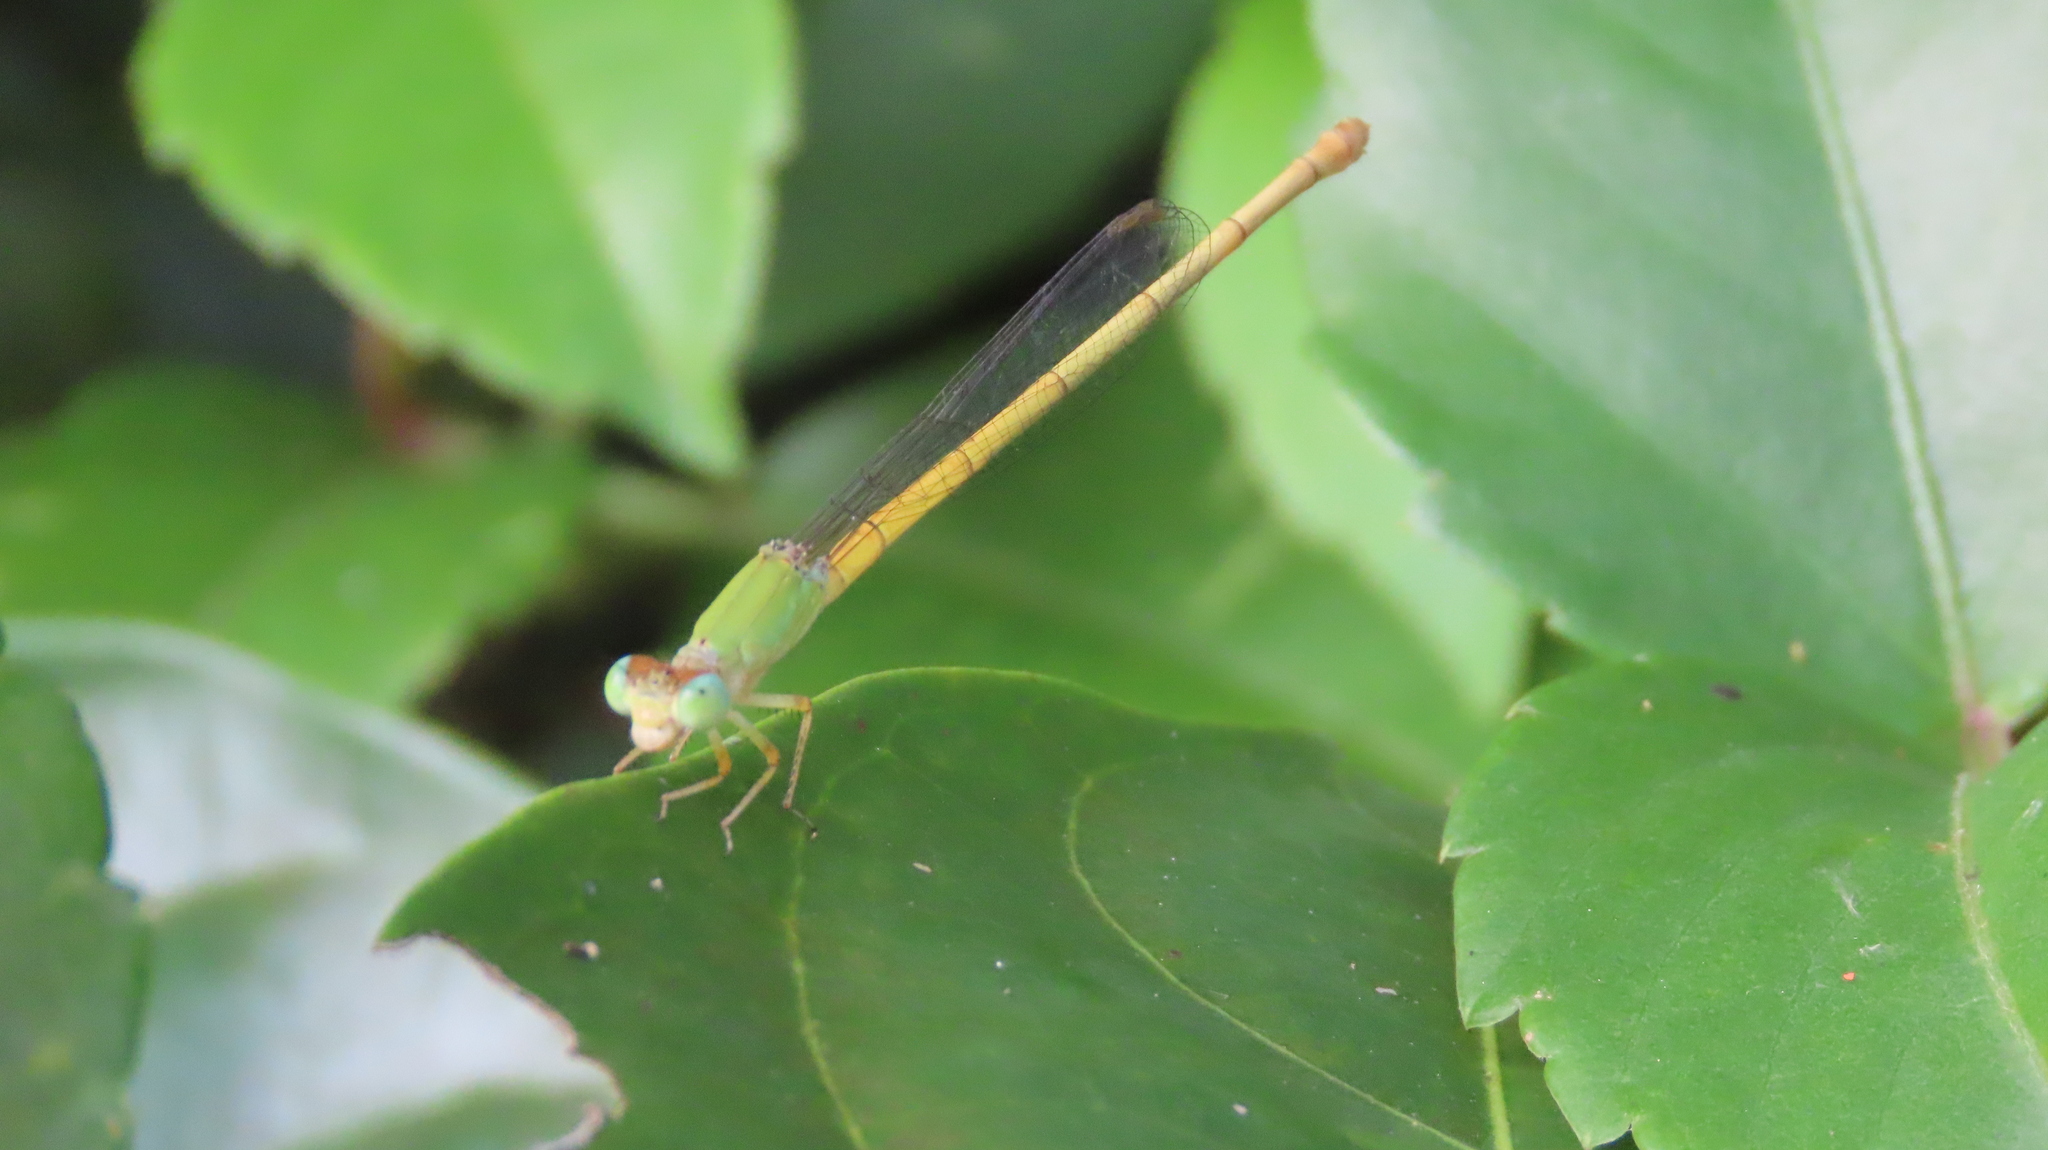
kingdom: Animalia
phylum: Arthropoda
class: Insecta
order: Odonata
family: Coenagrionidae
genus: Ceriagrion
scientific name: Ceriagrion coromandelianum
